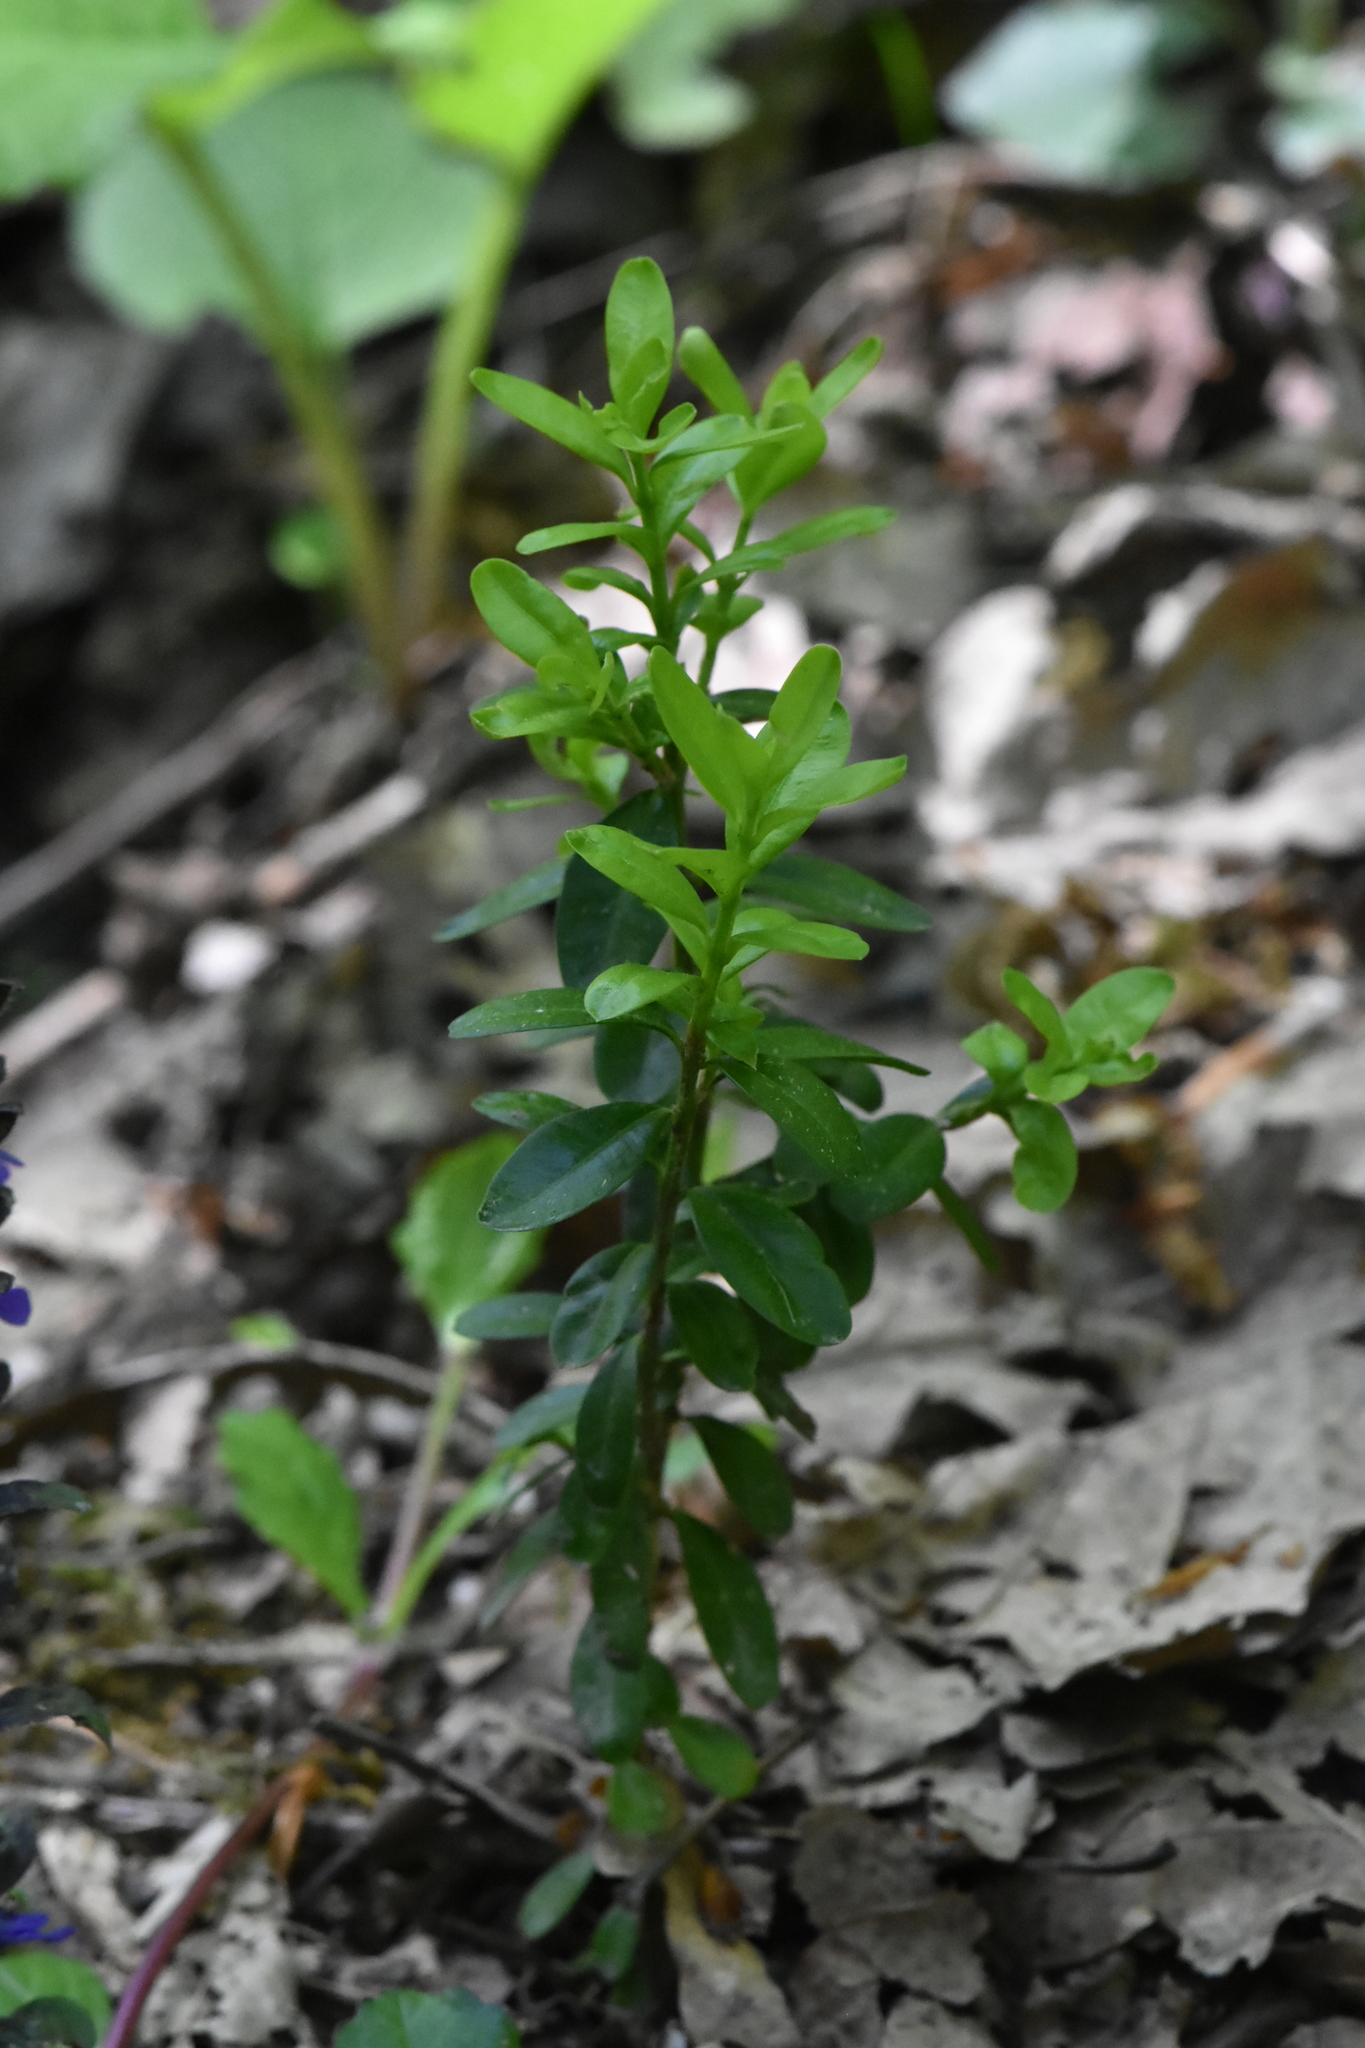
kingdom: Plantae
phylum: Tracheophyta
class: Magnoliopsida
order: Buxales
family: Buxaceae
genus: Buxus
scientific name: Buxus sempervirens
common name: Box
